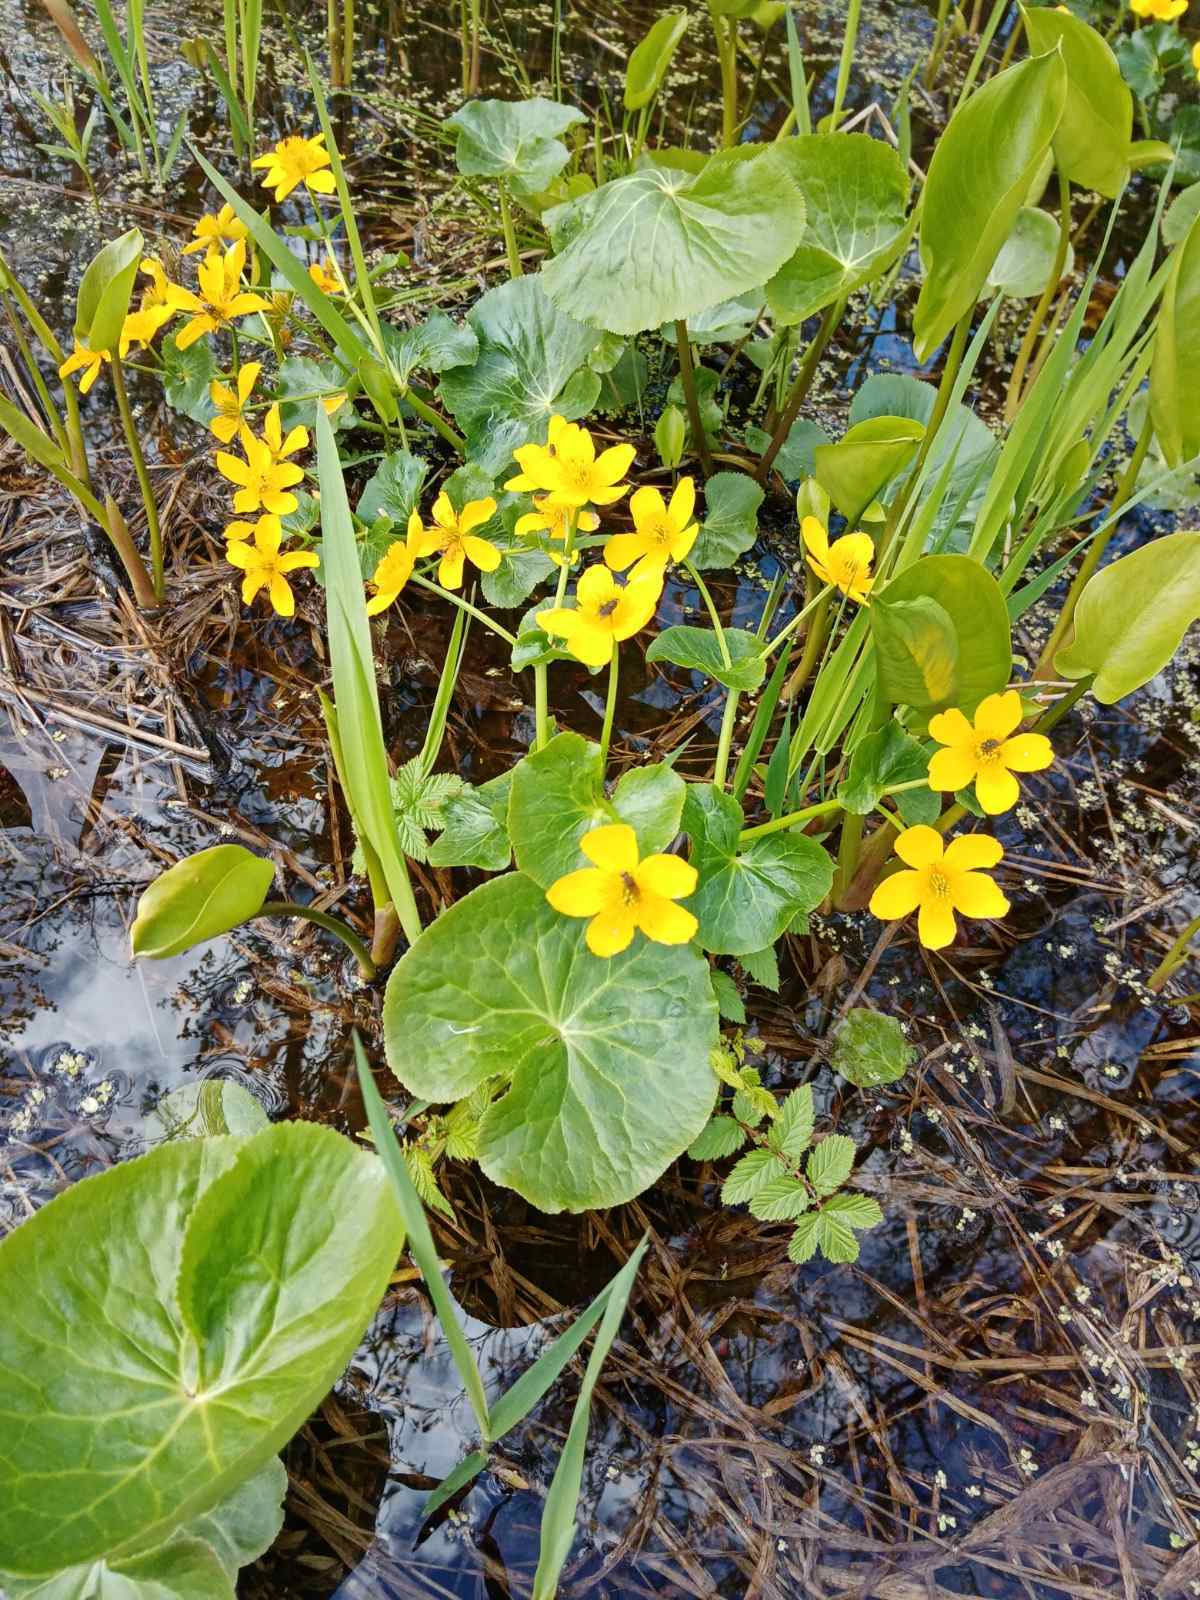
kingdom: Plantae
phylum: Tracheophyta
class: Magnoliopsida
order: Ranunculales
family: Ranunculaceae
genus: Caltha
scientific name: Caltha palustris
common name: Marsh marigold
